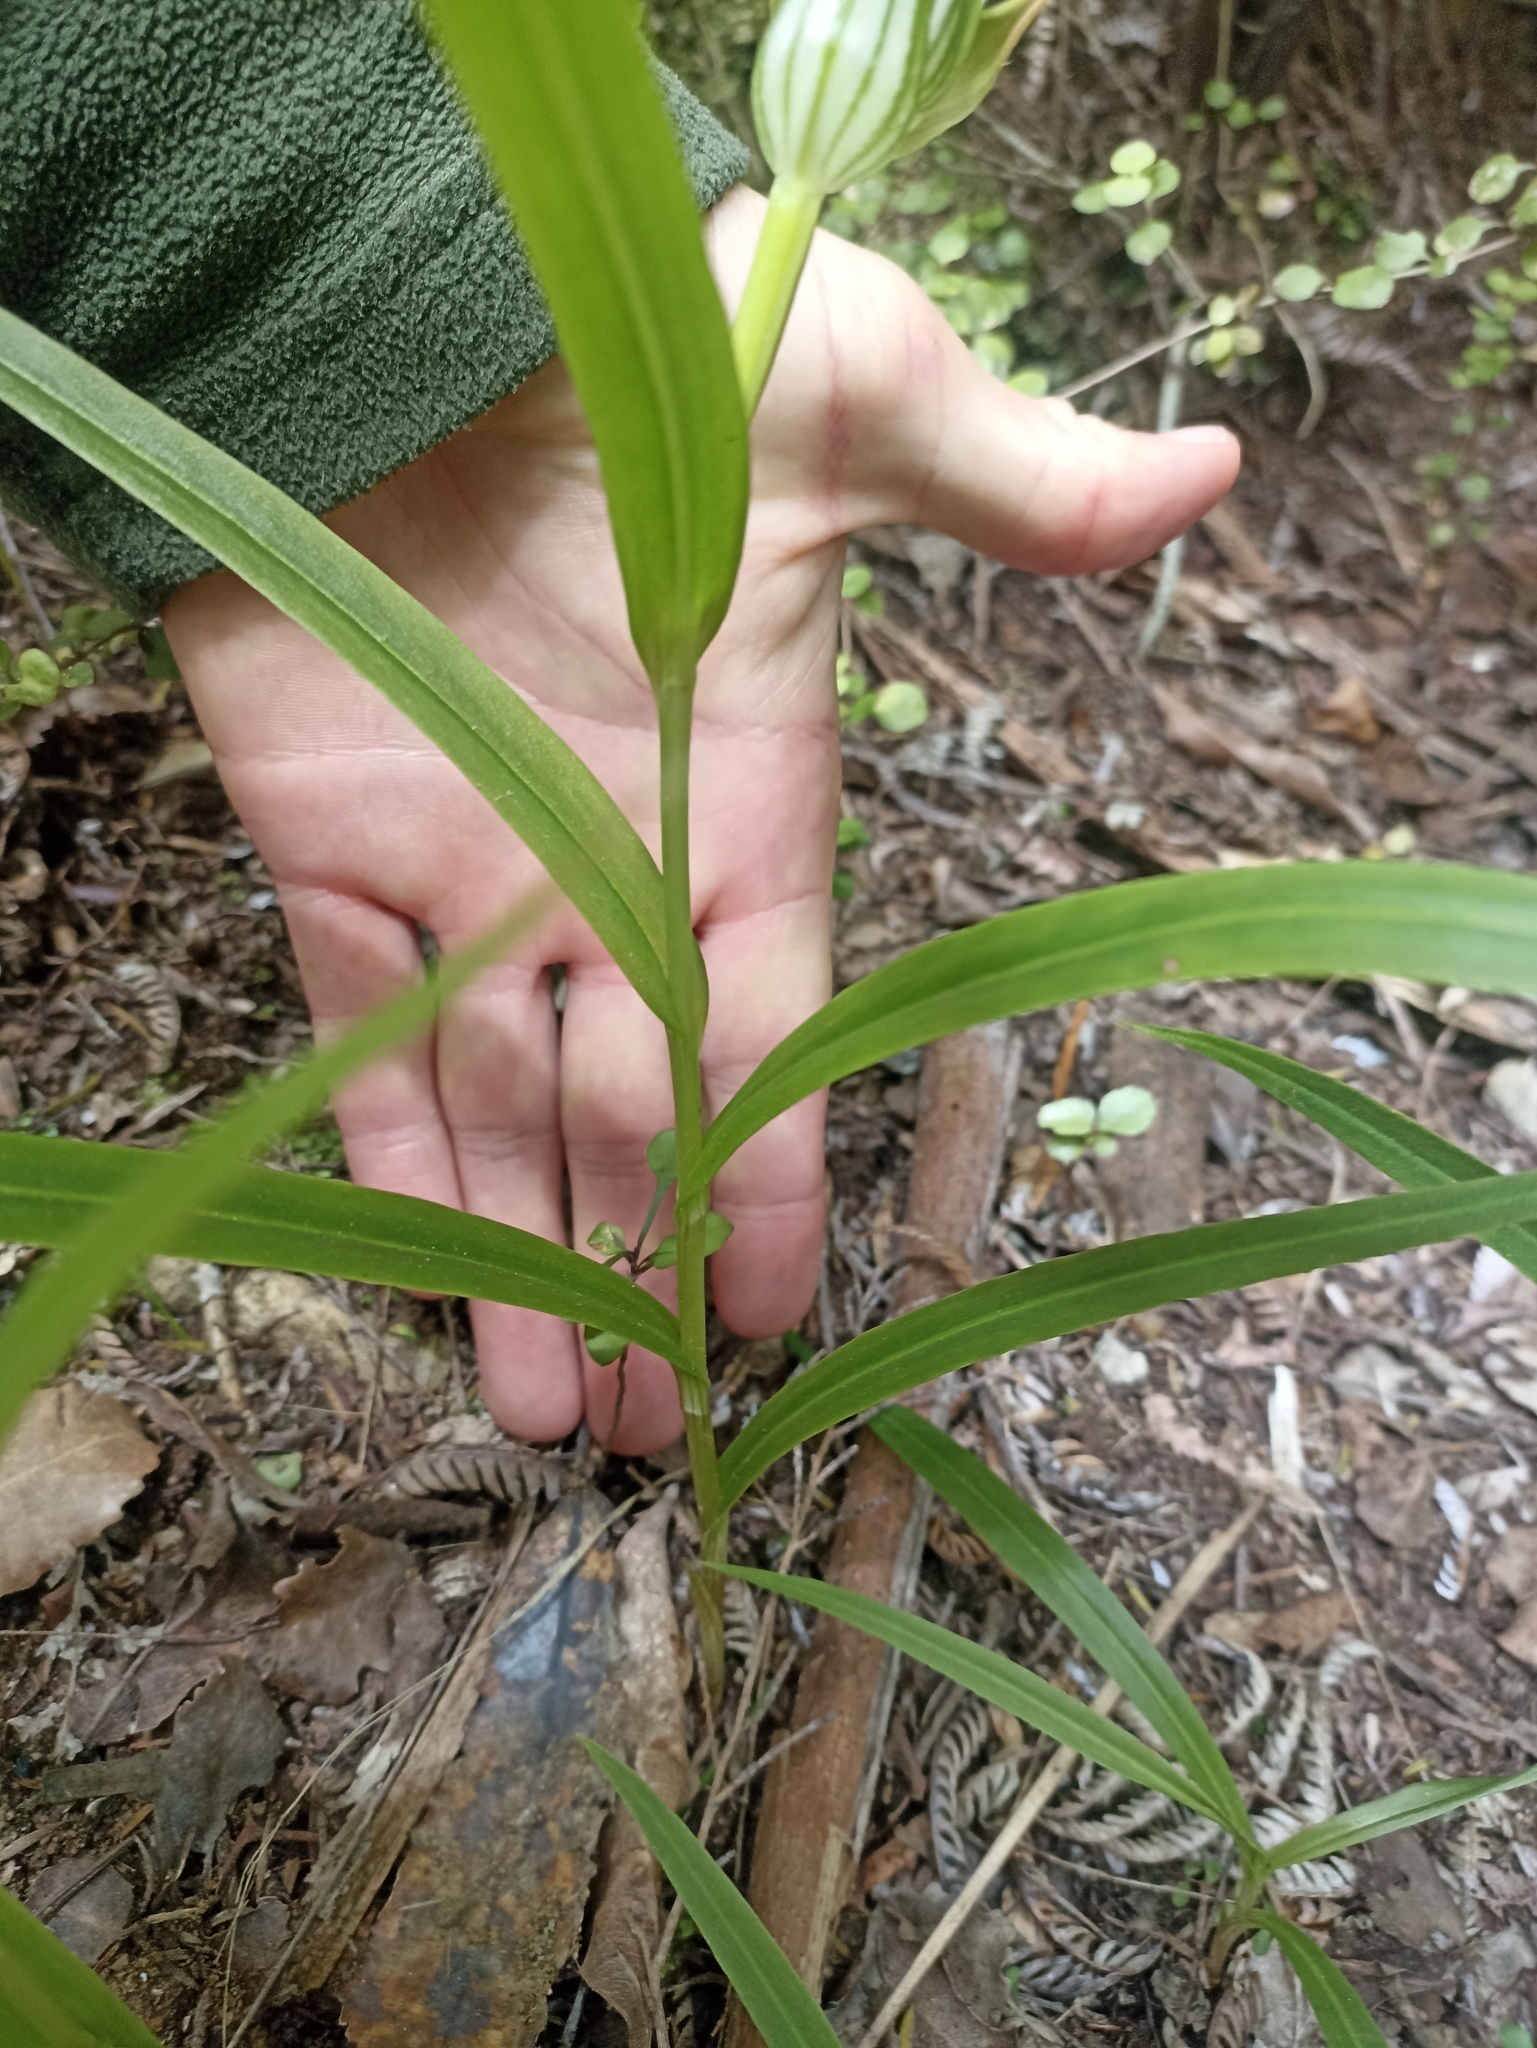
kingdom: Plantae
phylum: Tracheophyta
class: Liliopsida
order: Asparagales
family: Orchidaceae
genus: Pterostylis
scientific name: Pterostylis banksii
